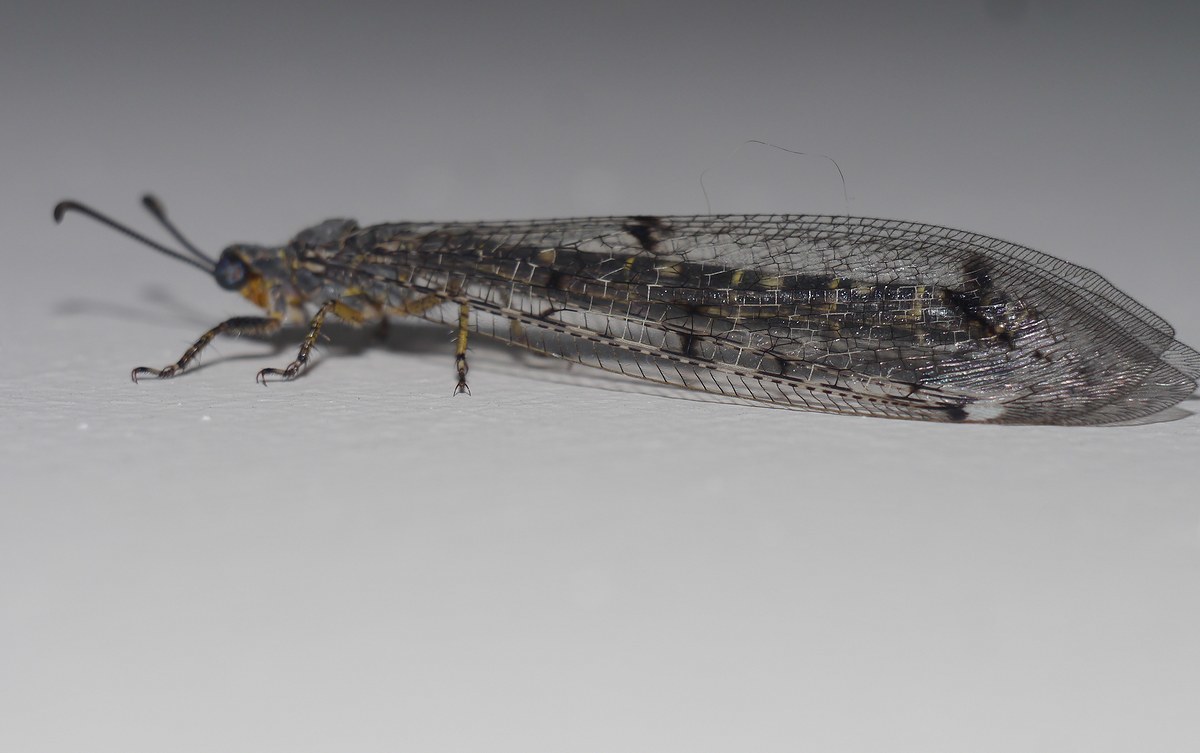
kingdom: Animalia
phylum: Arthropoda
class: Insecta
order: Neuroptera
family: Myrmeleontidae
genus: Distoleon
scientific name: Distoleon tetragrammicus
